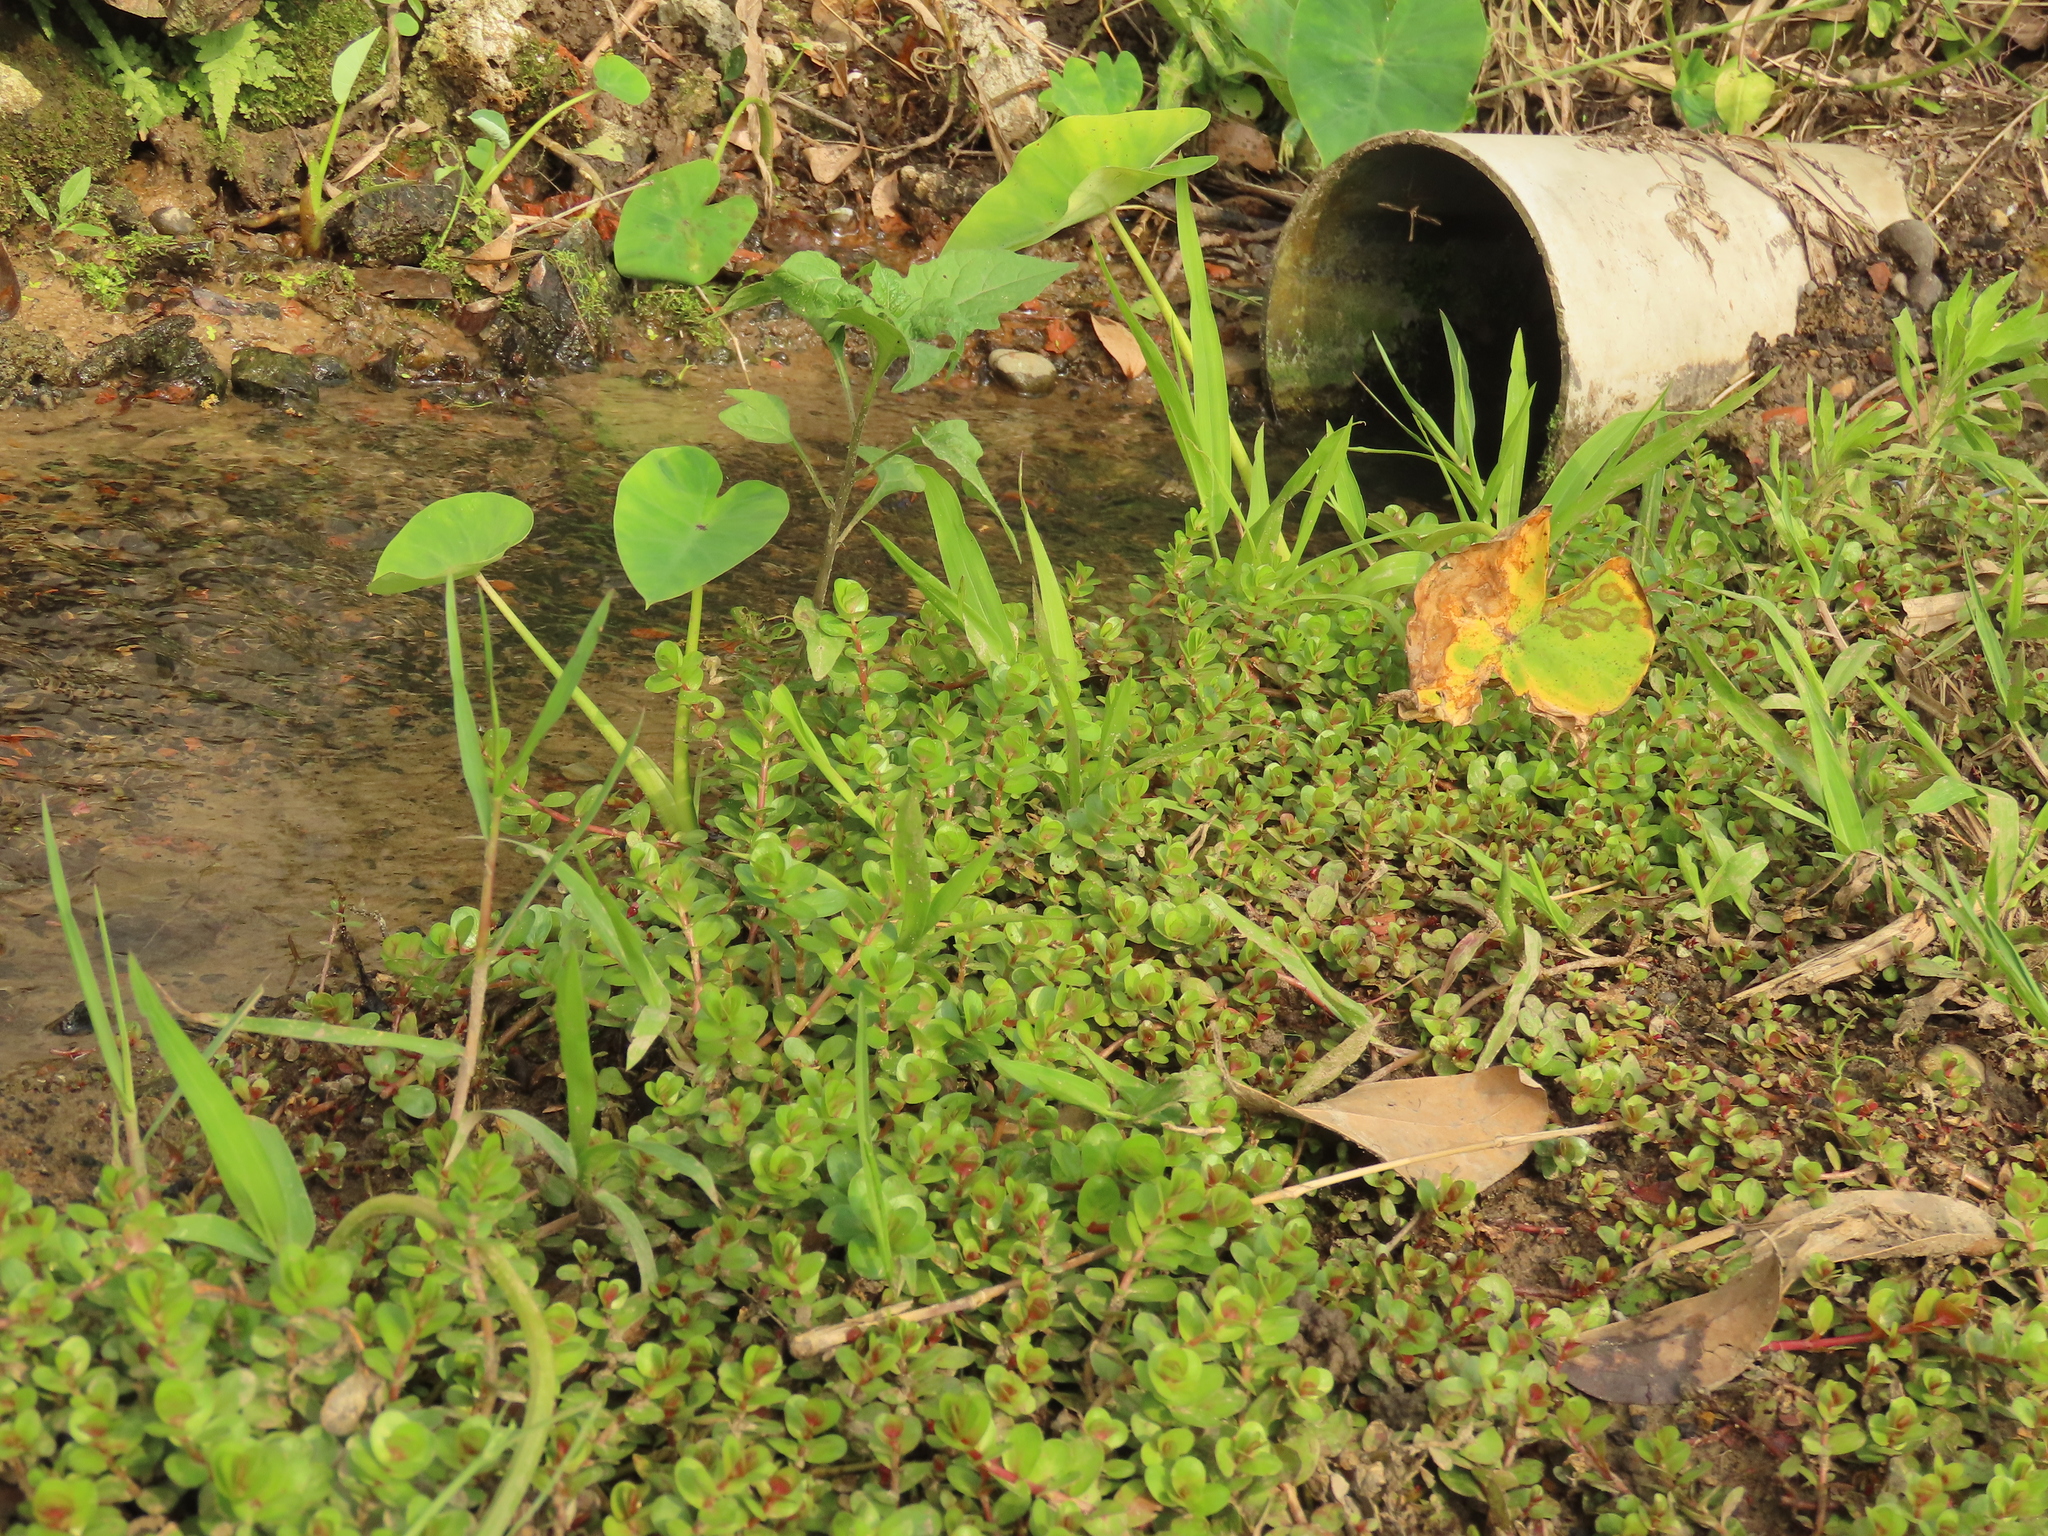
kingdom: Plantae
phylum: Tracheophyta
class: Magnoliopsida
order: Myrtales
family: Lythraceae
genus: Rotala
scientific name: Rotala rotundifolia
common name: Roundleaf toothcup
